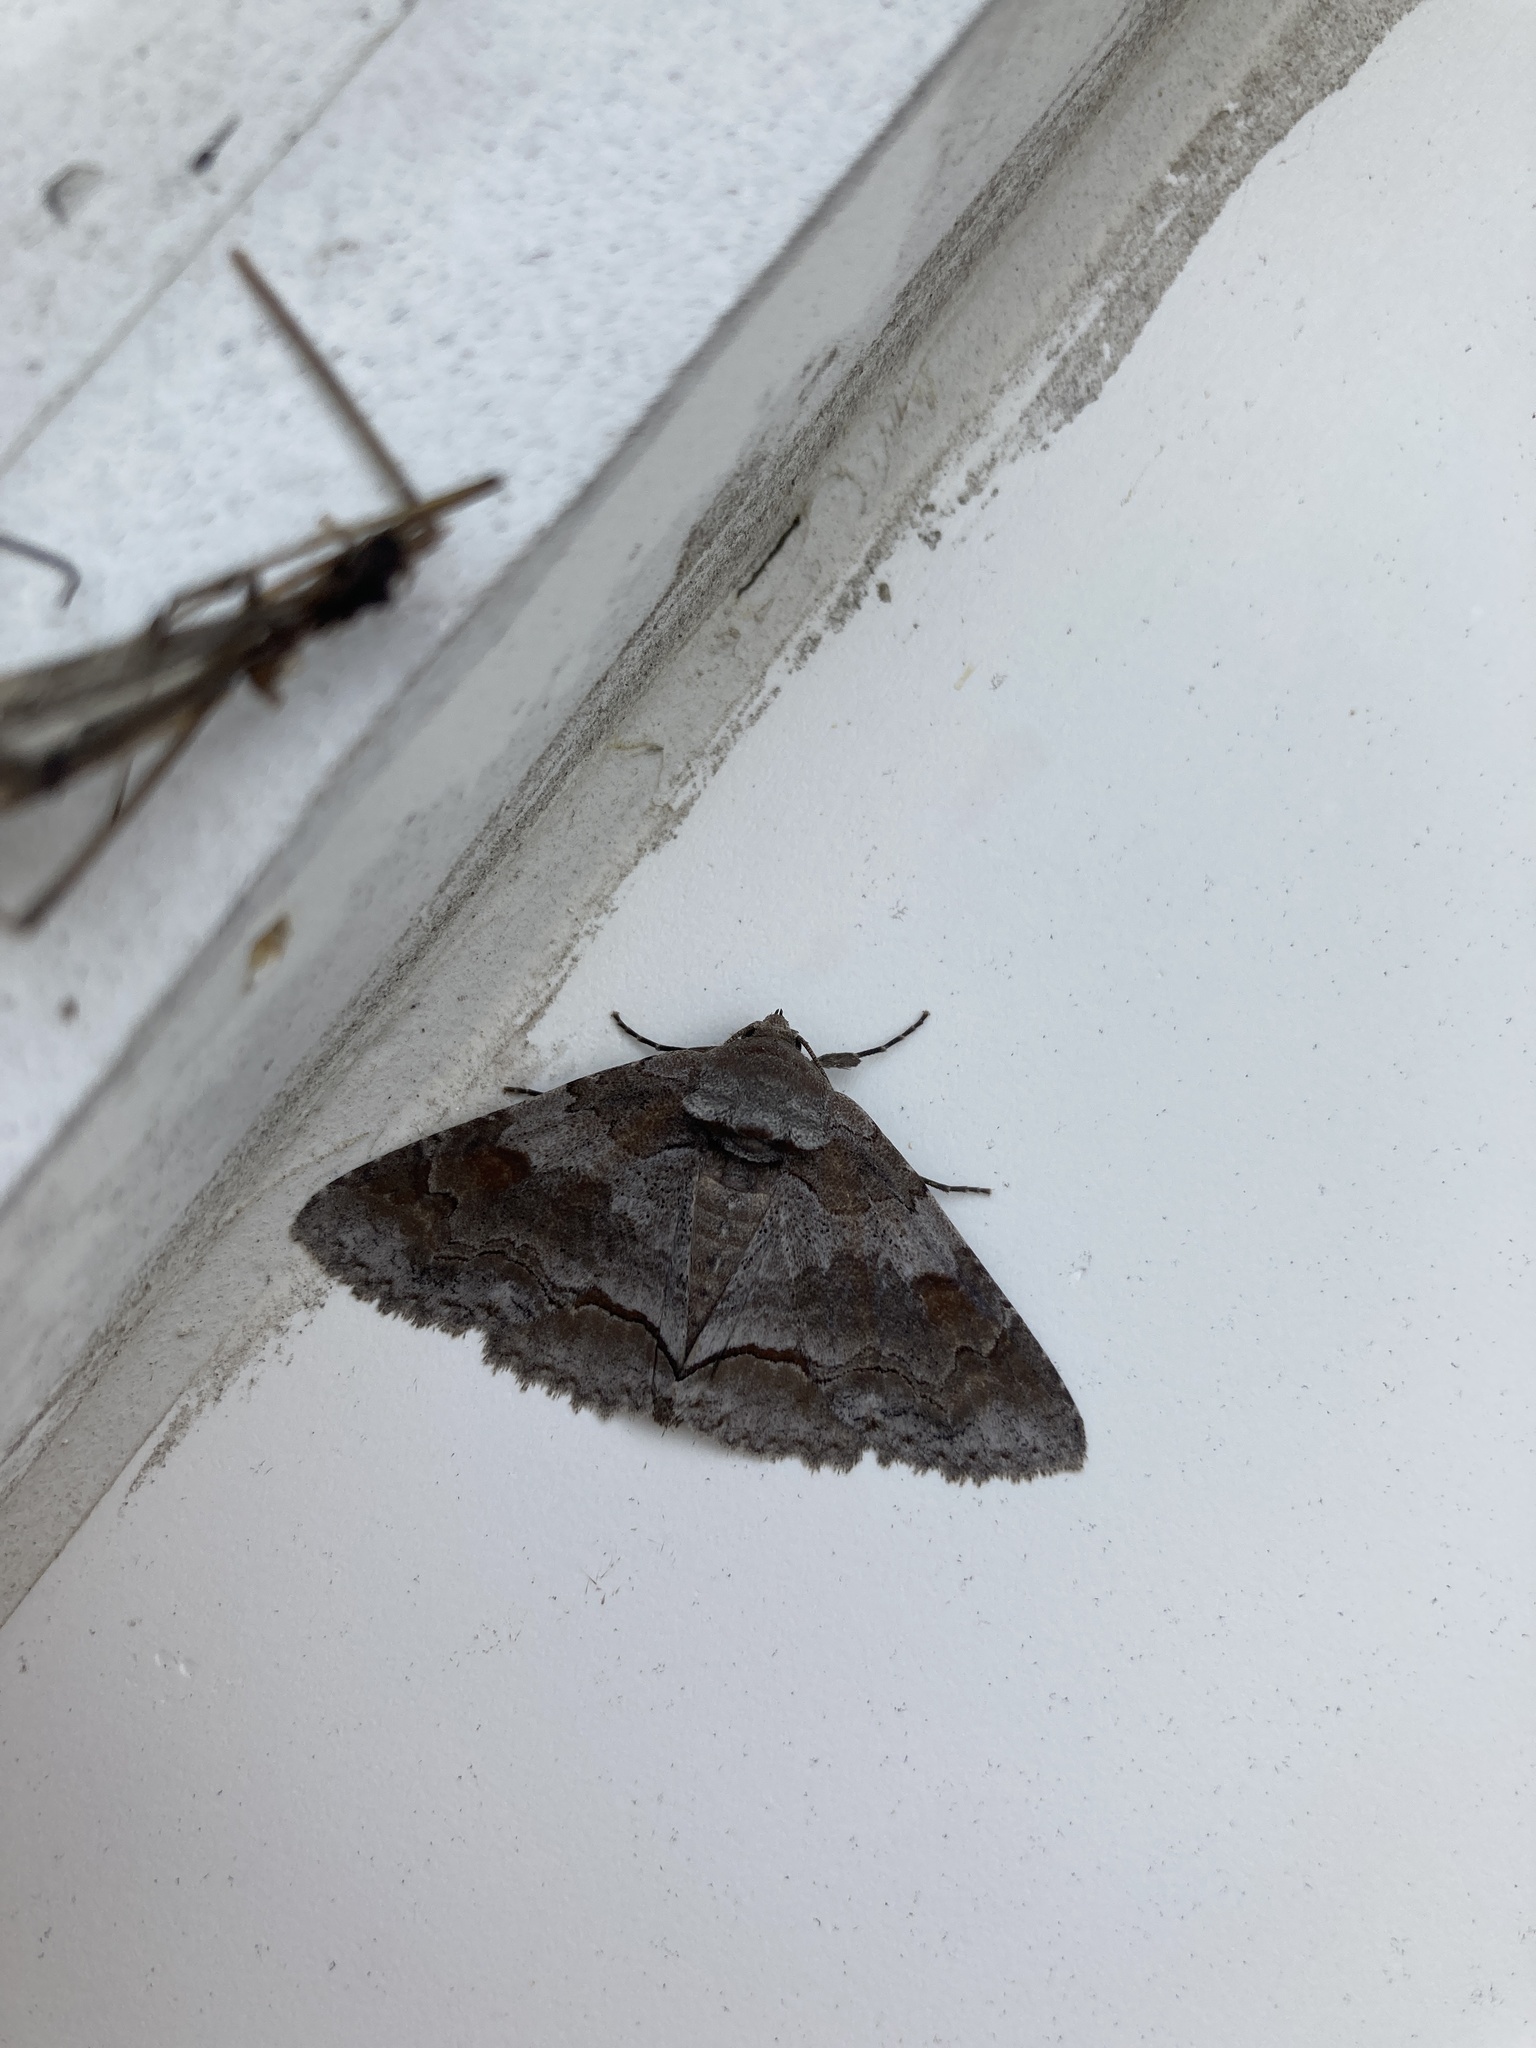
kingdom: Animalia
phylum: Arthropoda
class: Insecta
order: Lepidoptera
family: Erebidae
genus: Zale
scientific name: Zale obliqua
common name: Oblique zale moth
